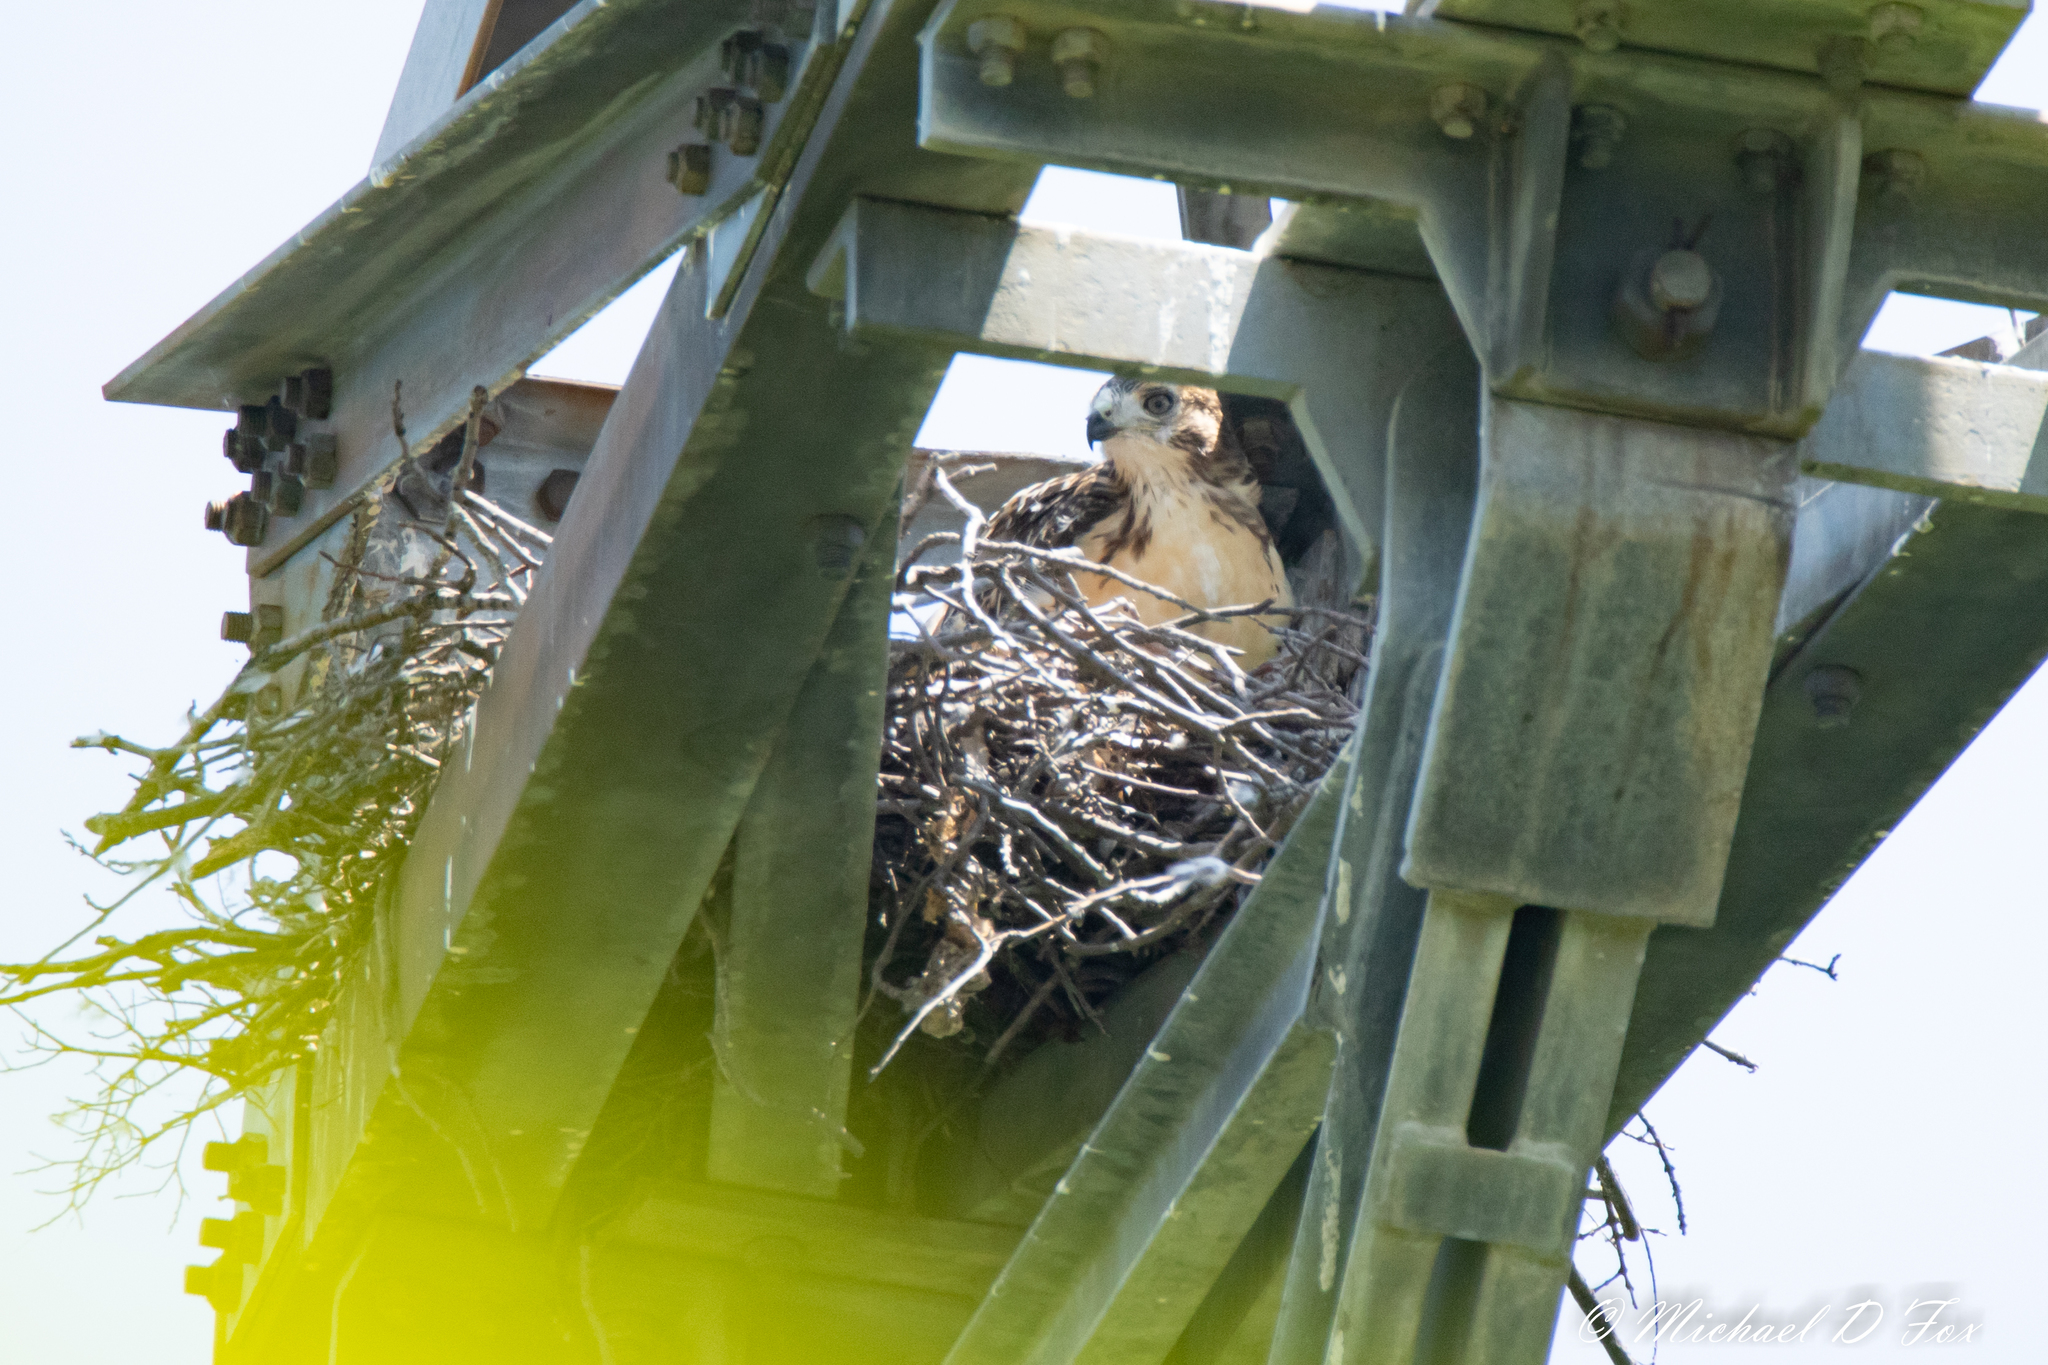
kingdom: Animalia
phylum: Chordata
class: Aves
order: Accipitriformes
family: Accipitridae
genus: Buteo
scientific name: Buteo jamaicensis
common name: Red-tailed hawk
